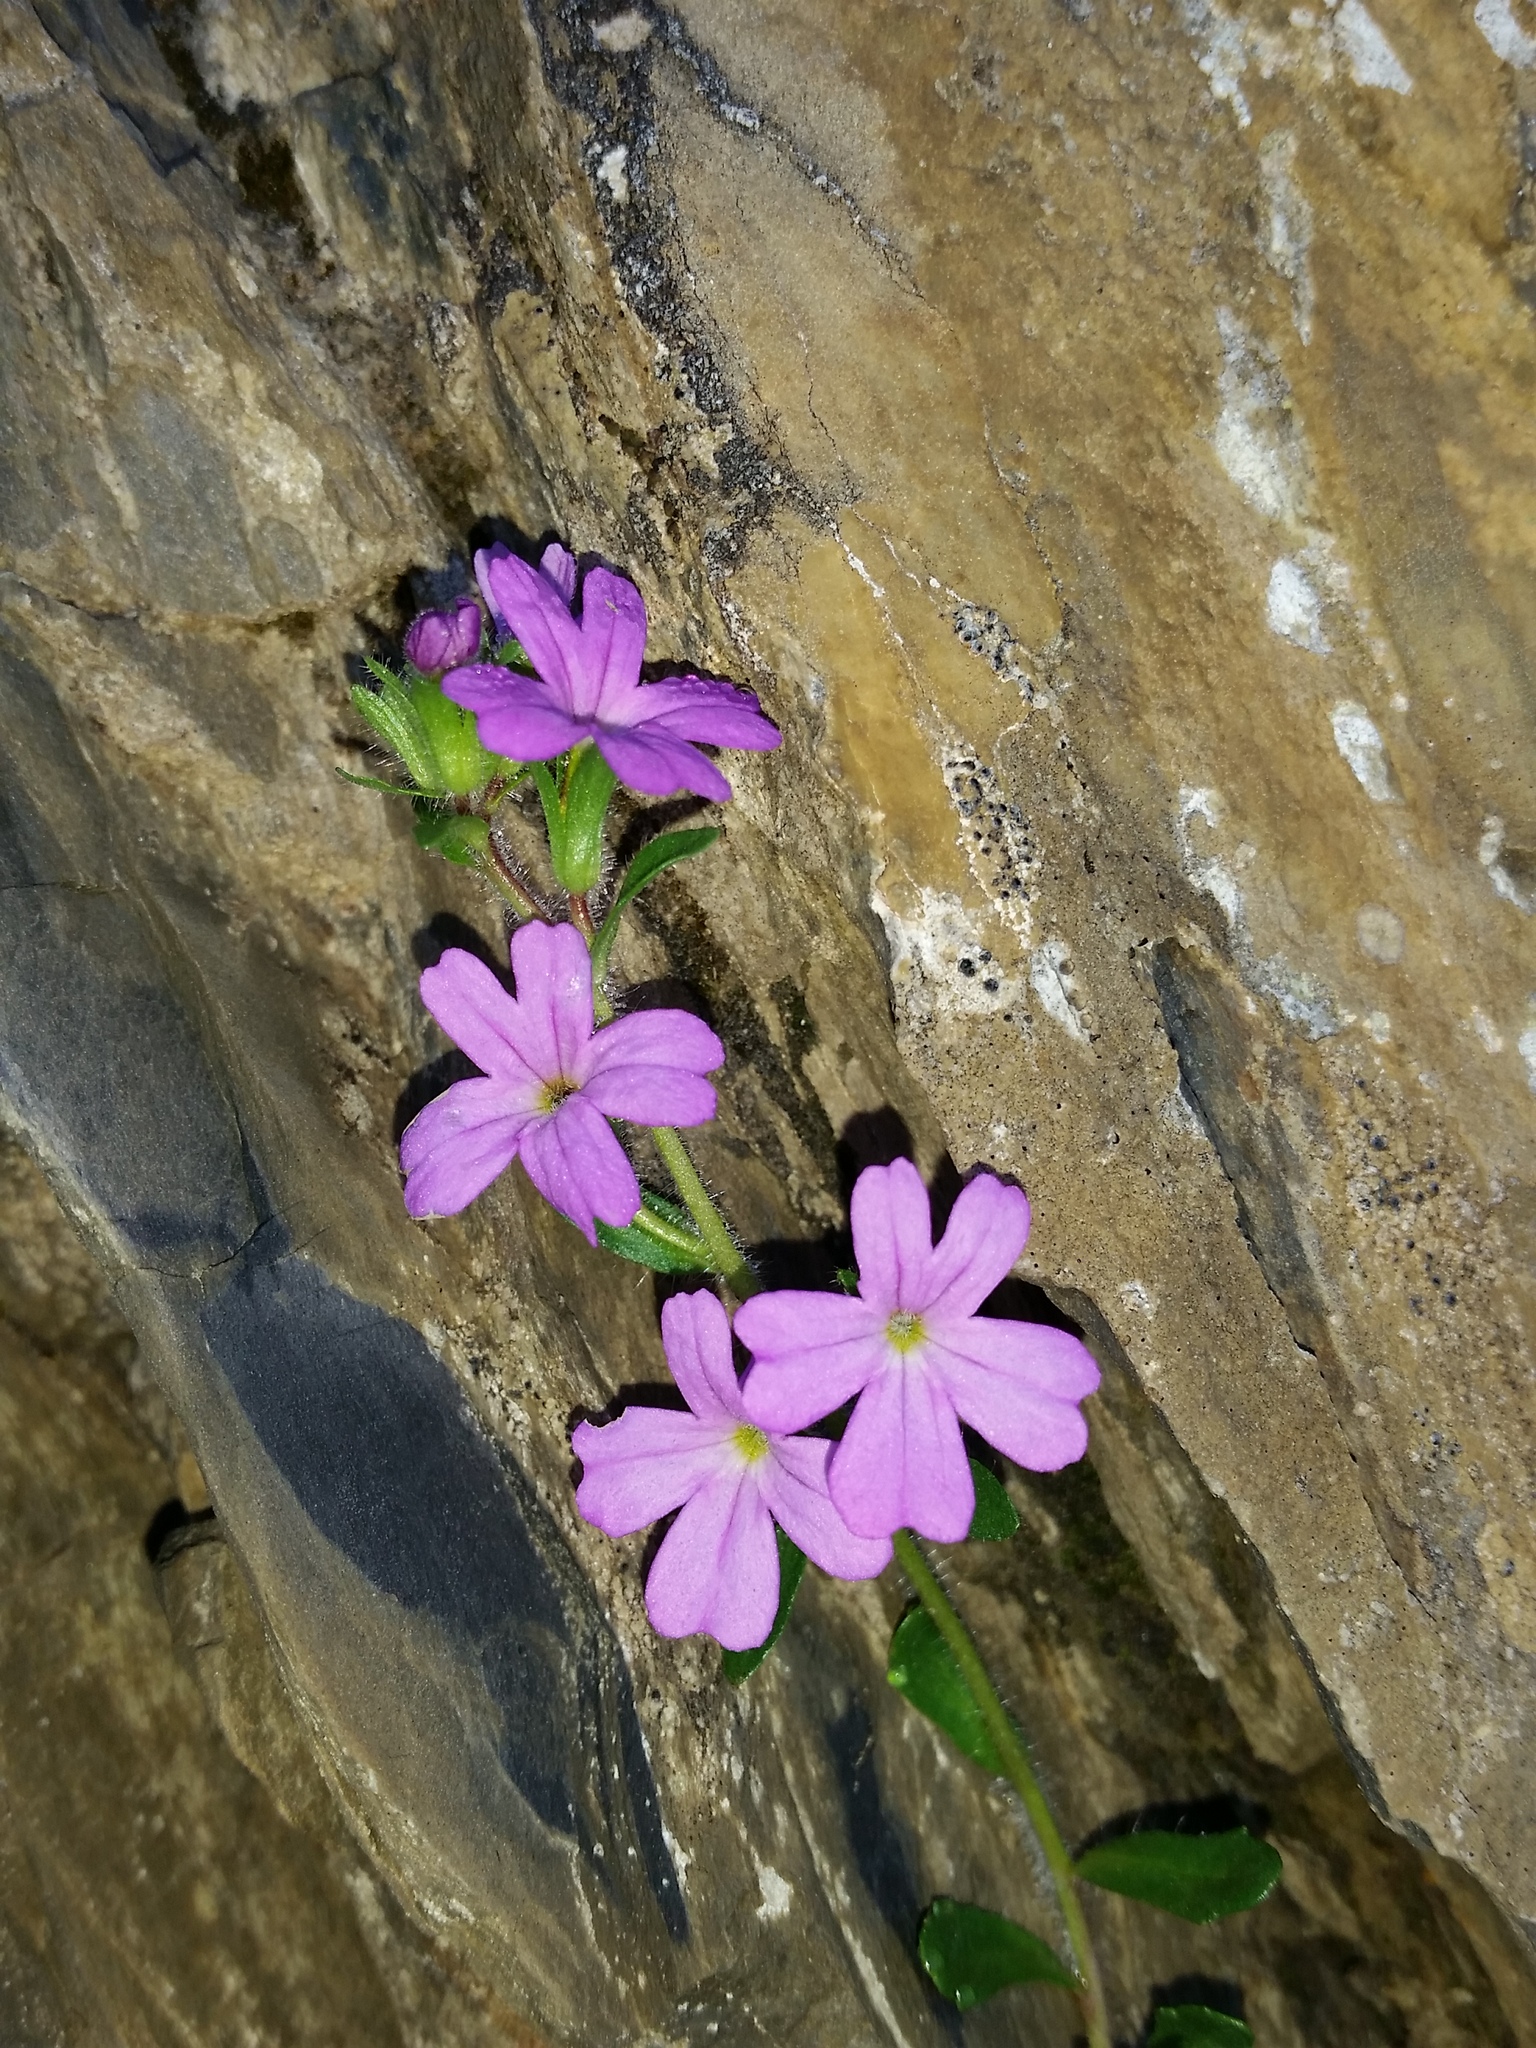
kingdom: Plantae
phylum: Tracheophyta
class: Magnoliopsida
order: Lamiales
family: Plantaginaceae
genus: Erinus
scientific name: Erinus alpinus
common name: Fairy foxglove
